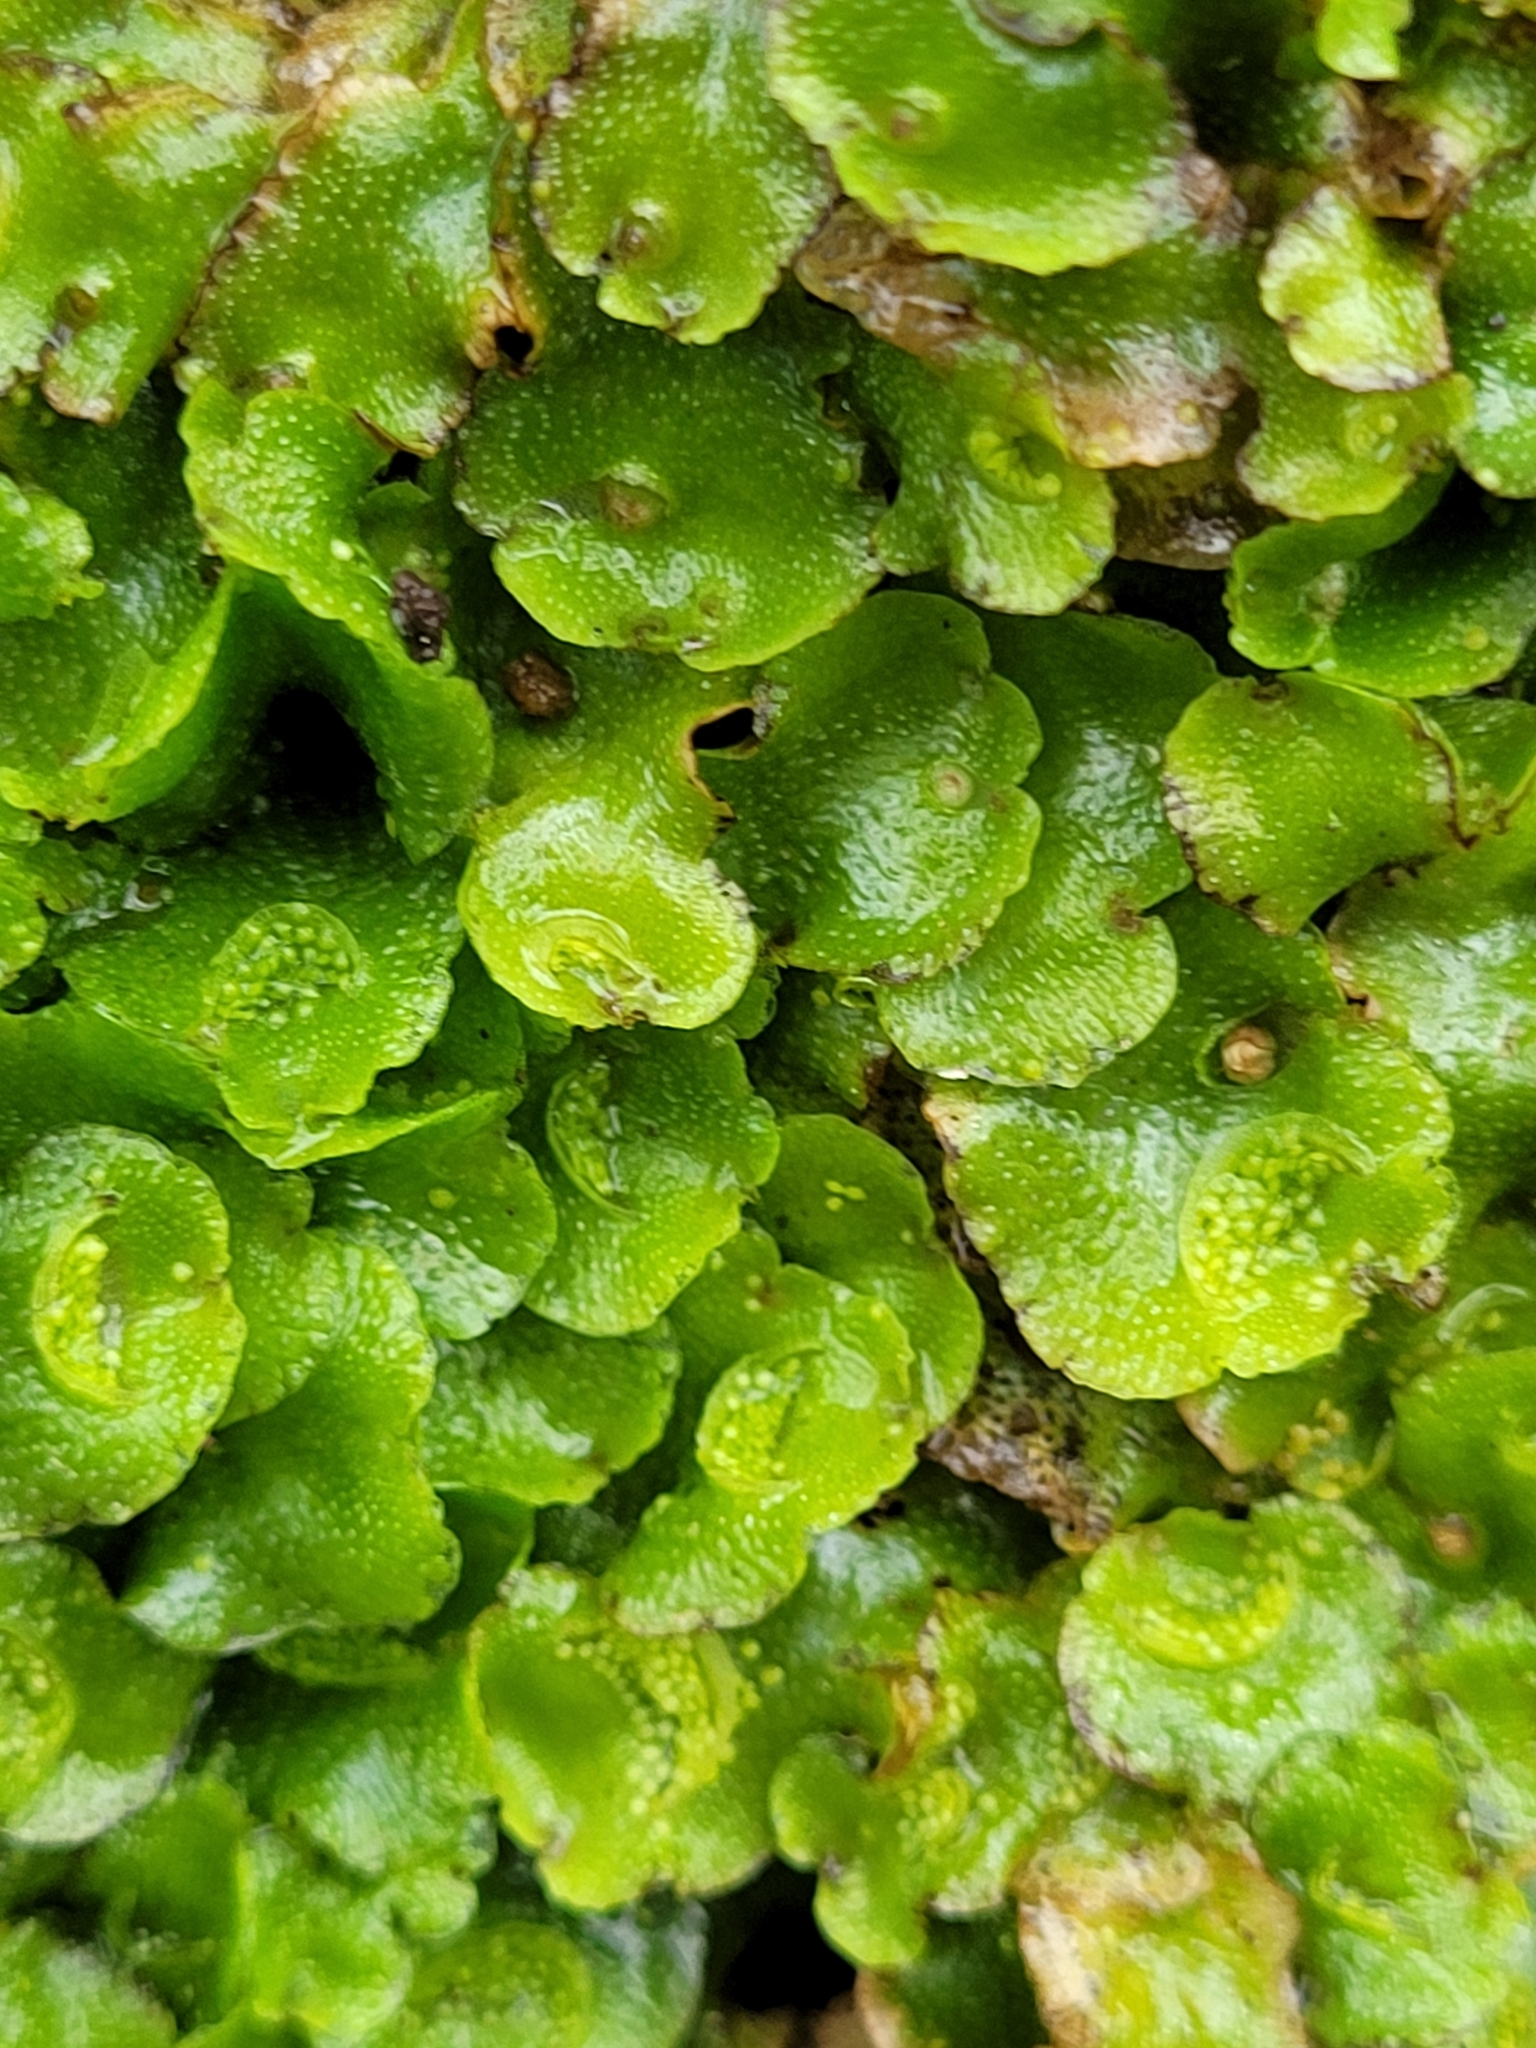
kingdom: Plantae
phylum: Marchantiophyta
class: Marchantiopsida
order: Lunulariales
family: Lunulariaceae
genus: Lunularia
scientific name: Lunularia cruciata
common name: Crescent-cup liverwort
